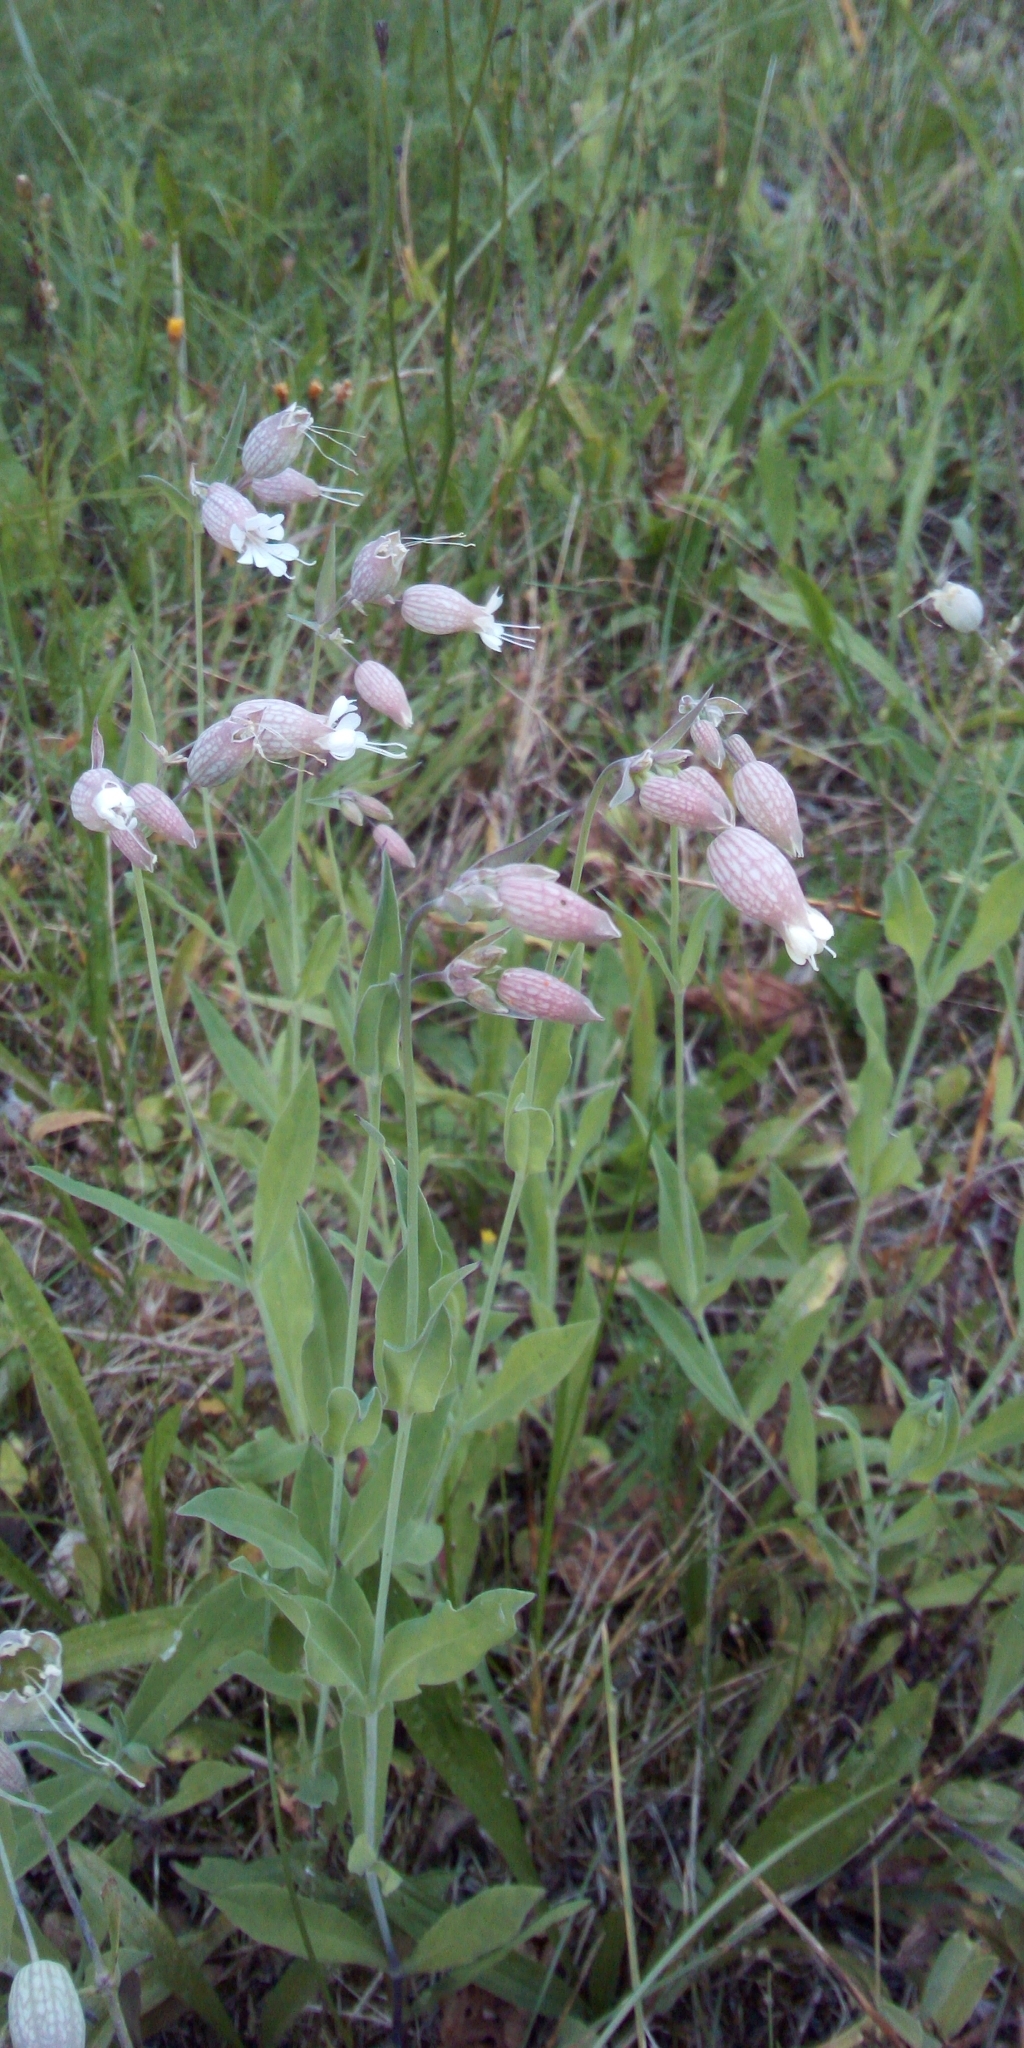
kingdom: Plantae
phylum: Tracheophyta
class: Magnoliopsida
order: Caryophyllales
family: Caryophyllaceae
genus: Silene
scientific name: Silene vulgaris
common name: Bladder campion
